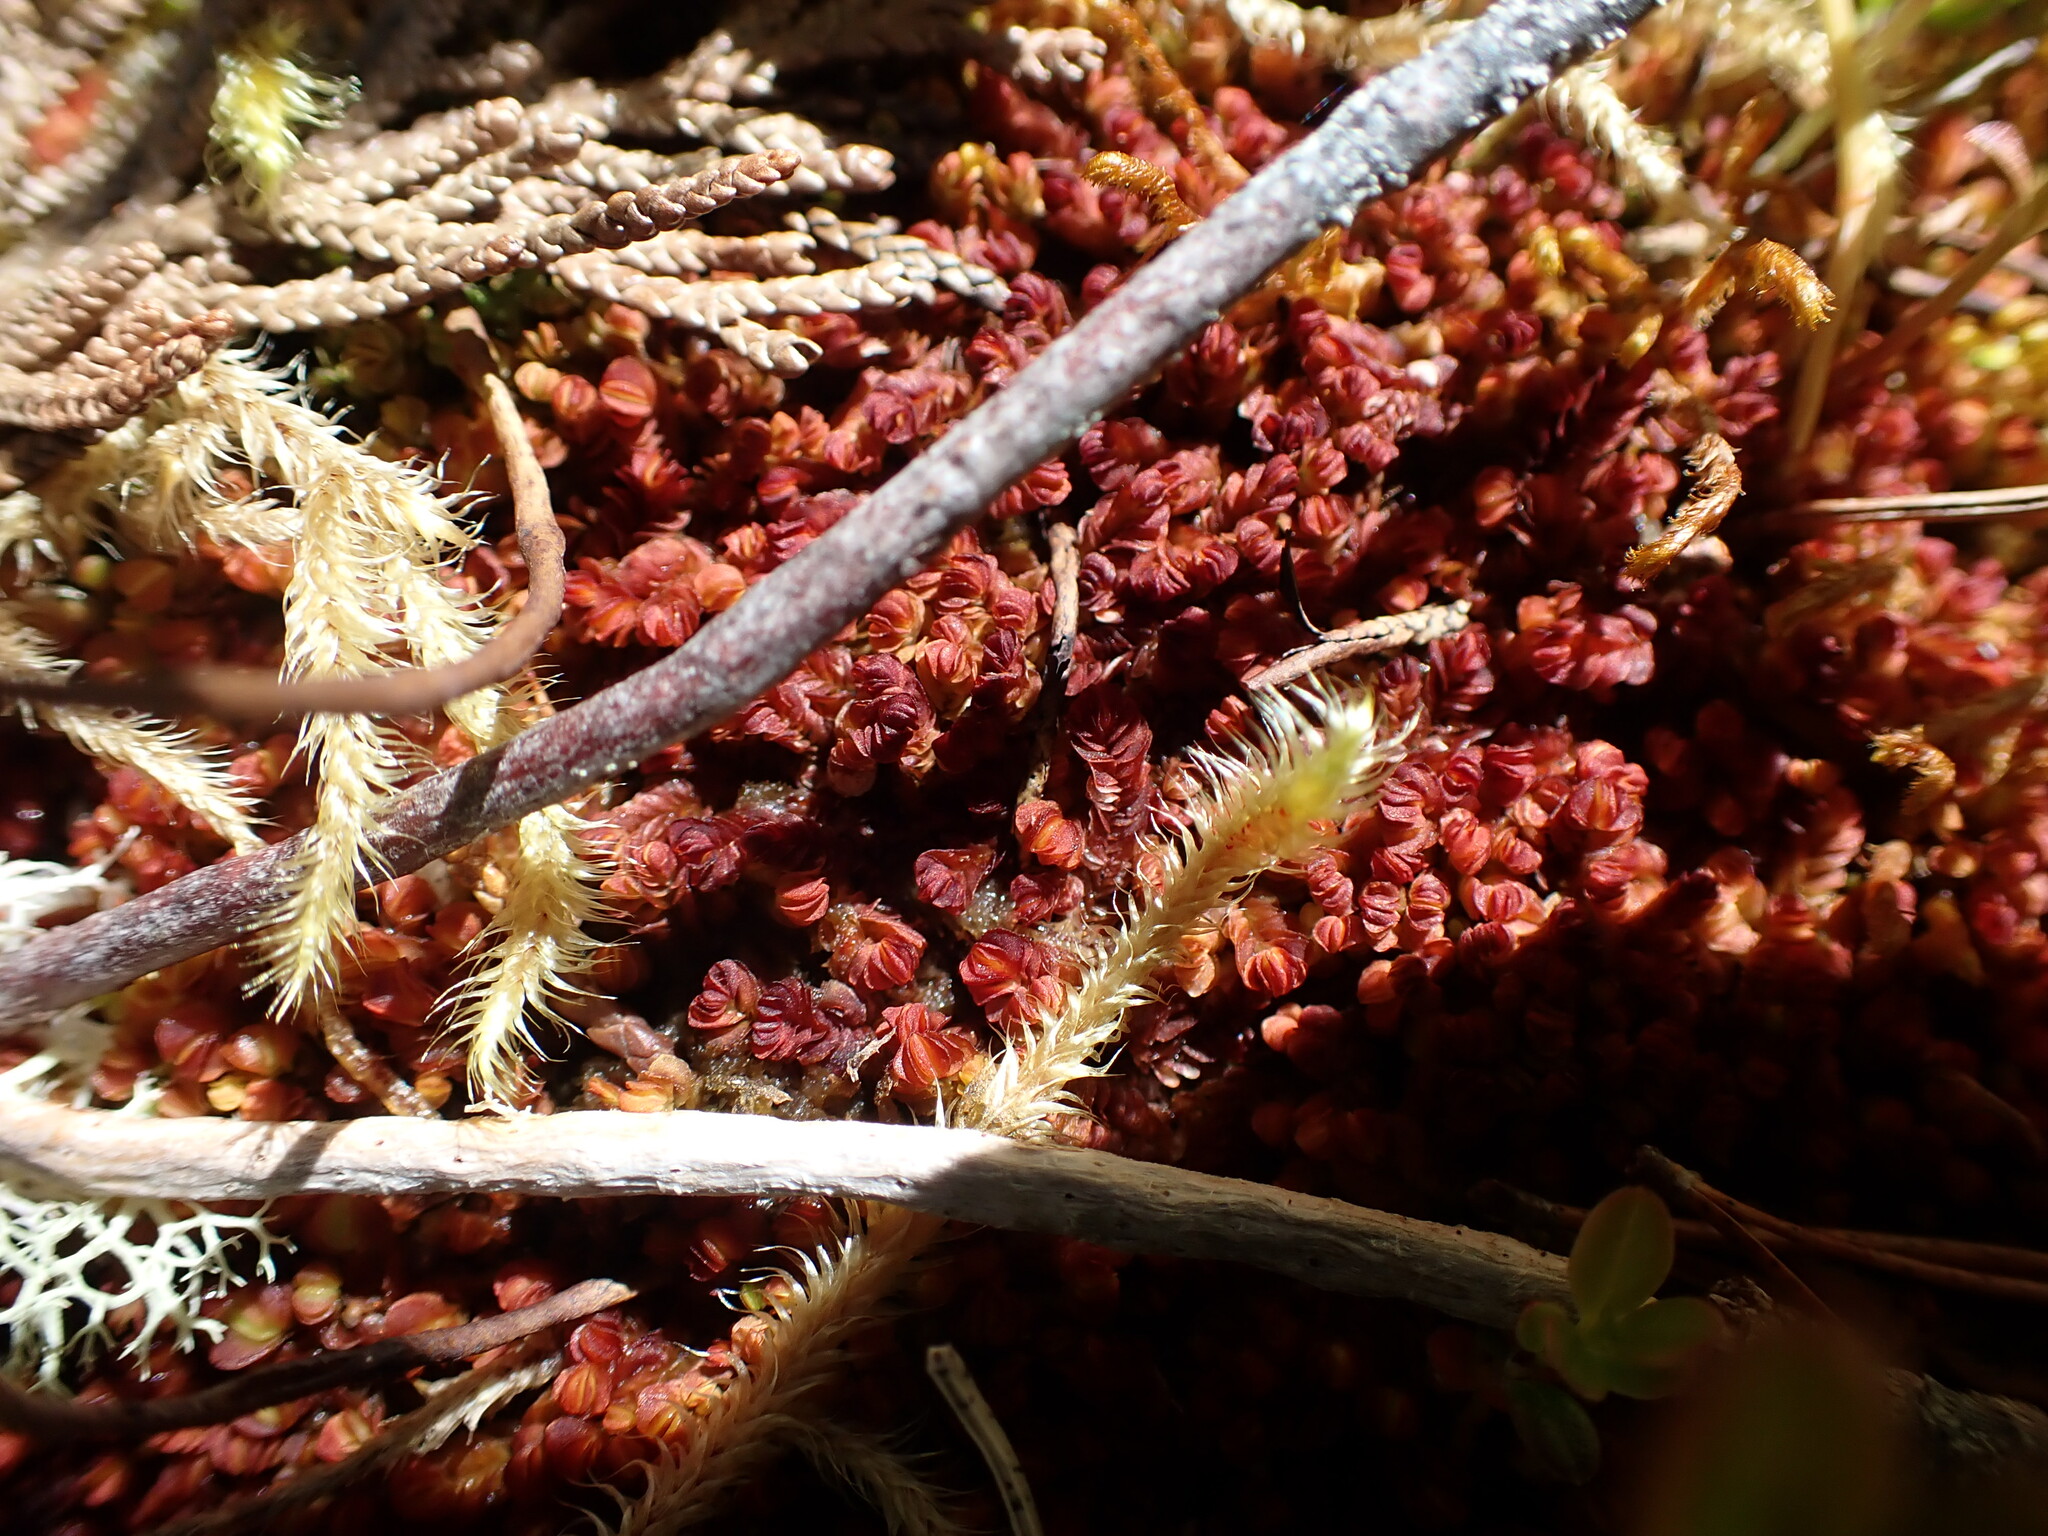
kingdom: Plantae
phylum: Marchantiophyta
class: Jungermanniopsida
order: Jungermanniales
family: Myliaceae
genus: Mylia
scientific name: Mylia taylorii
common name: Taylor s flapwort
